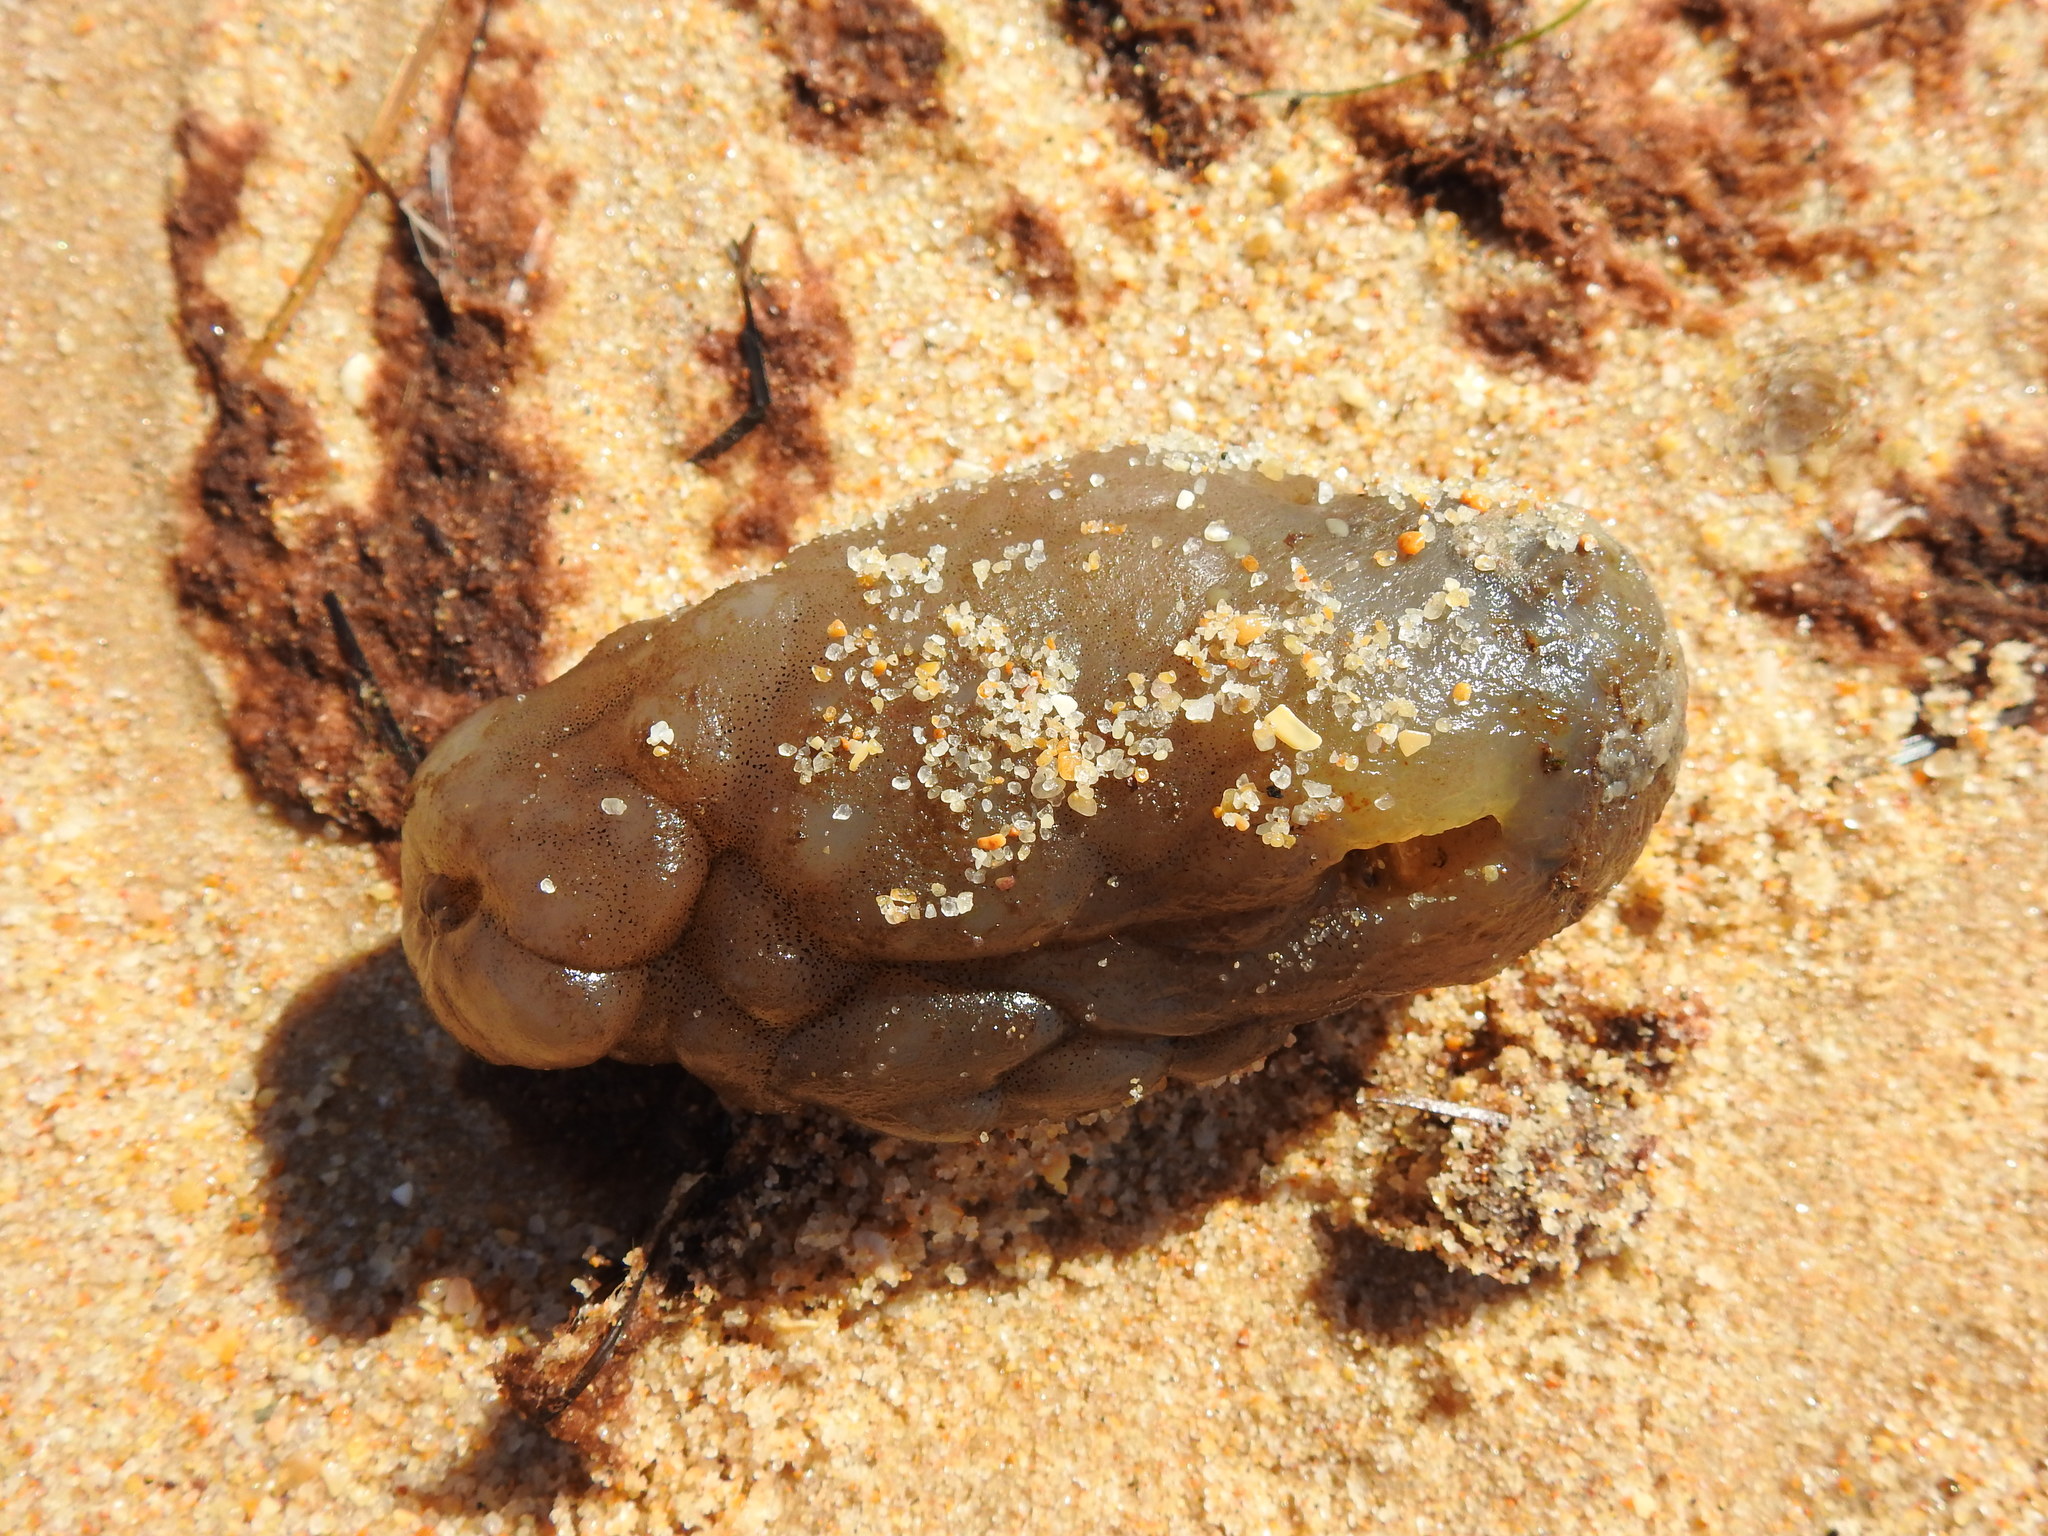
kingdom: Animalia
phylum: Chordata
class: Ascidiacea
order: Phlebobranchia
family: Ascidiidae
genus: Phallusia
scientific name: Phallusia mammillata
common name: Neptune's heart sea squirt
